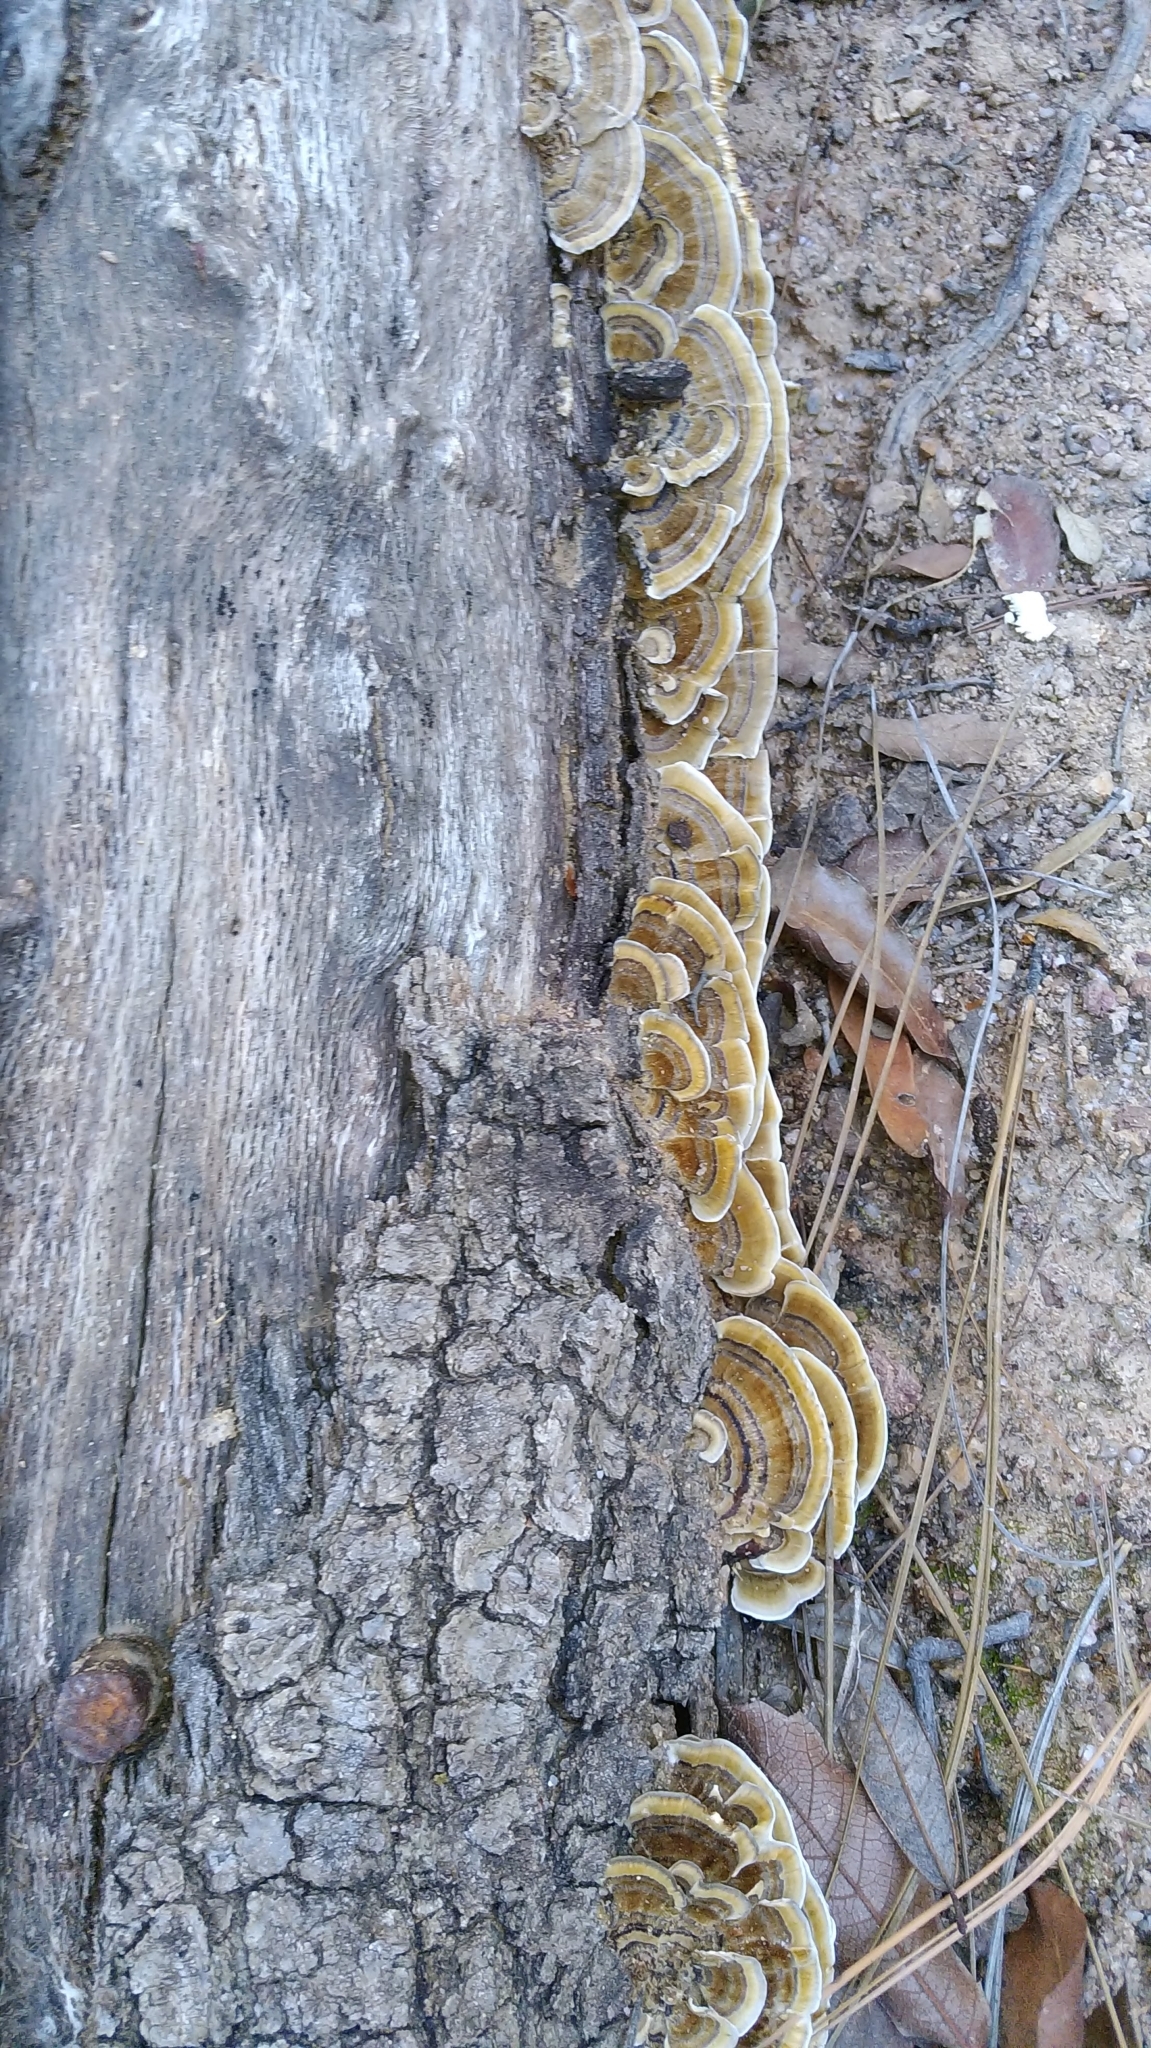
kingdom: Fungi
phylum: Basidiomycota
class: Agaricomycetes
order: Polyporales
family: Polyporaceae
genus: Trametes
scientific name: Trametes versicolor
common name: Turkeytail
